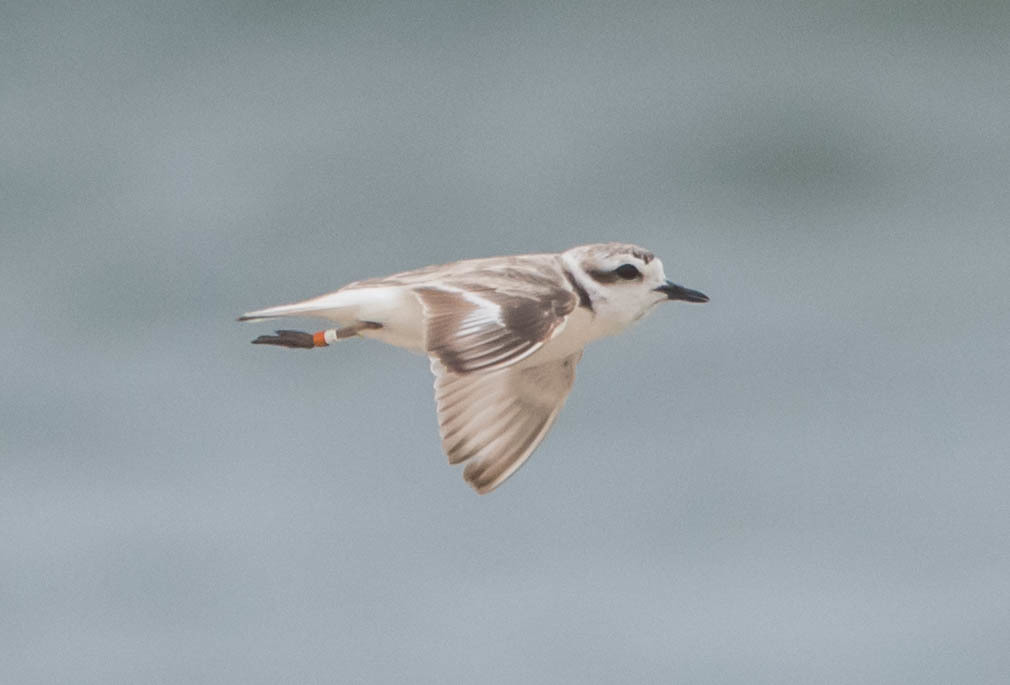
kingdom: Animalia
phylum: Chordata
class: Aves
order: Charadriiformes
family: Charadriidae
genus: Anarhynchus
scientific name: Anarhynchus
